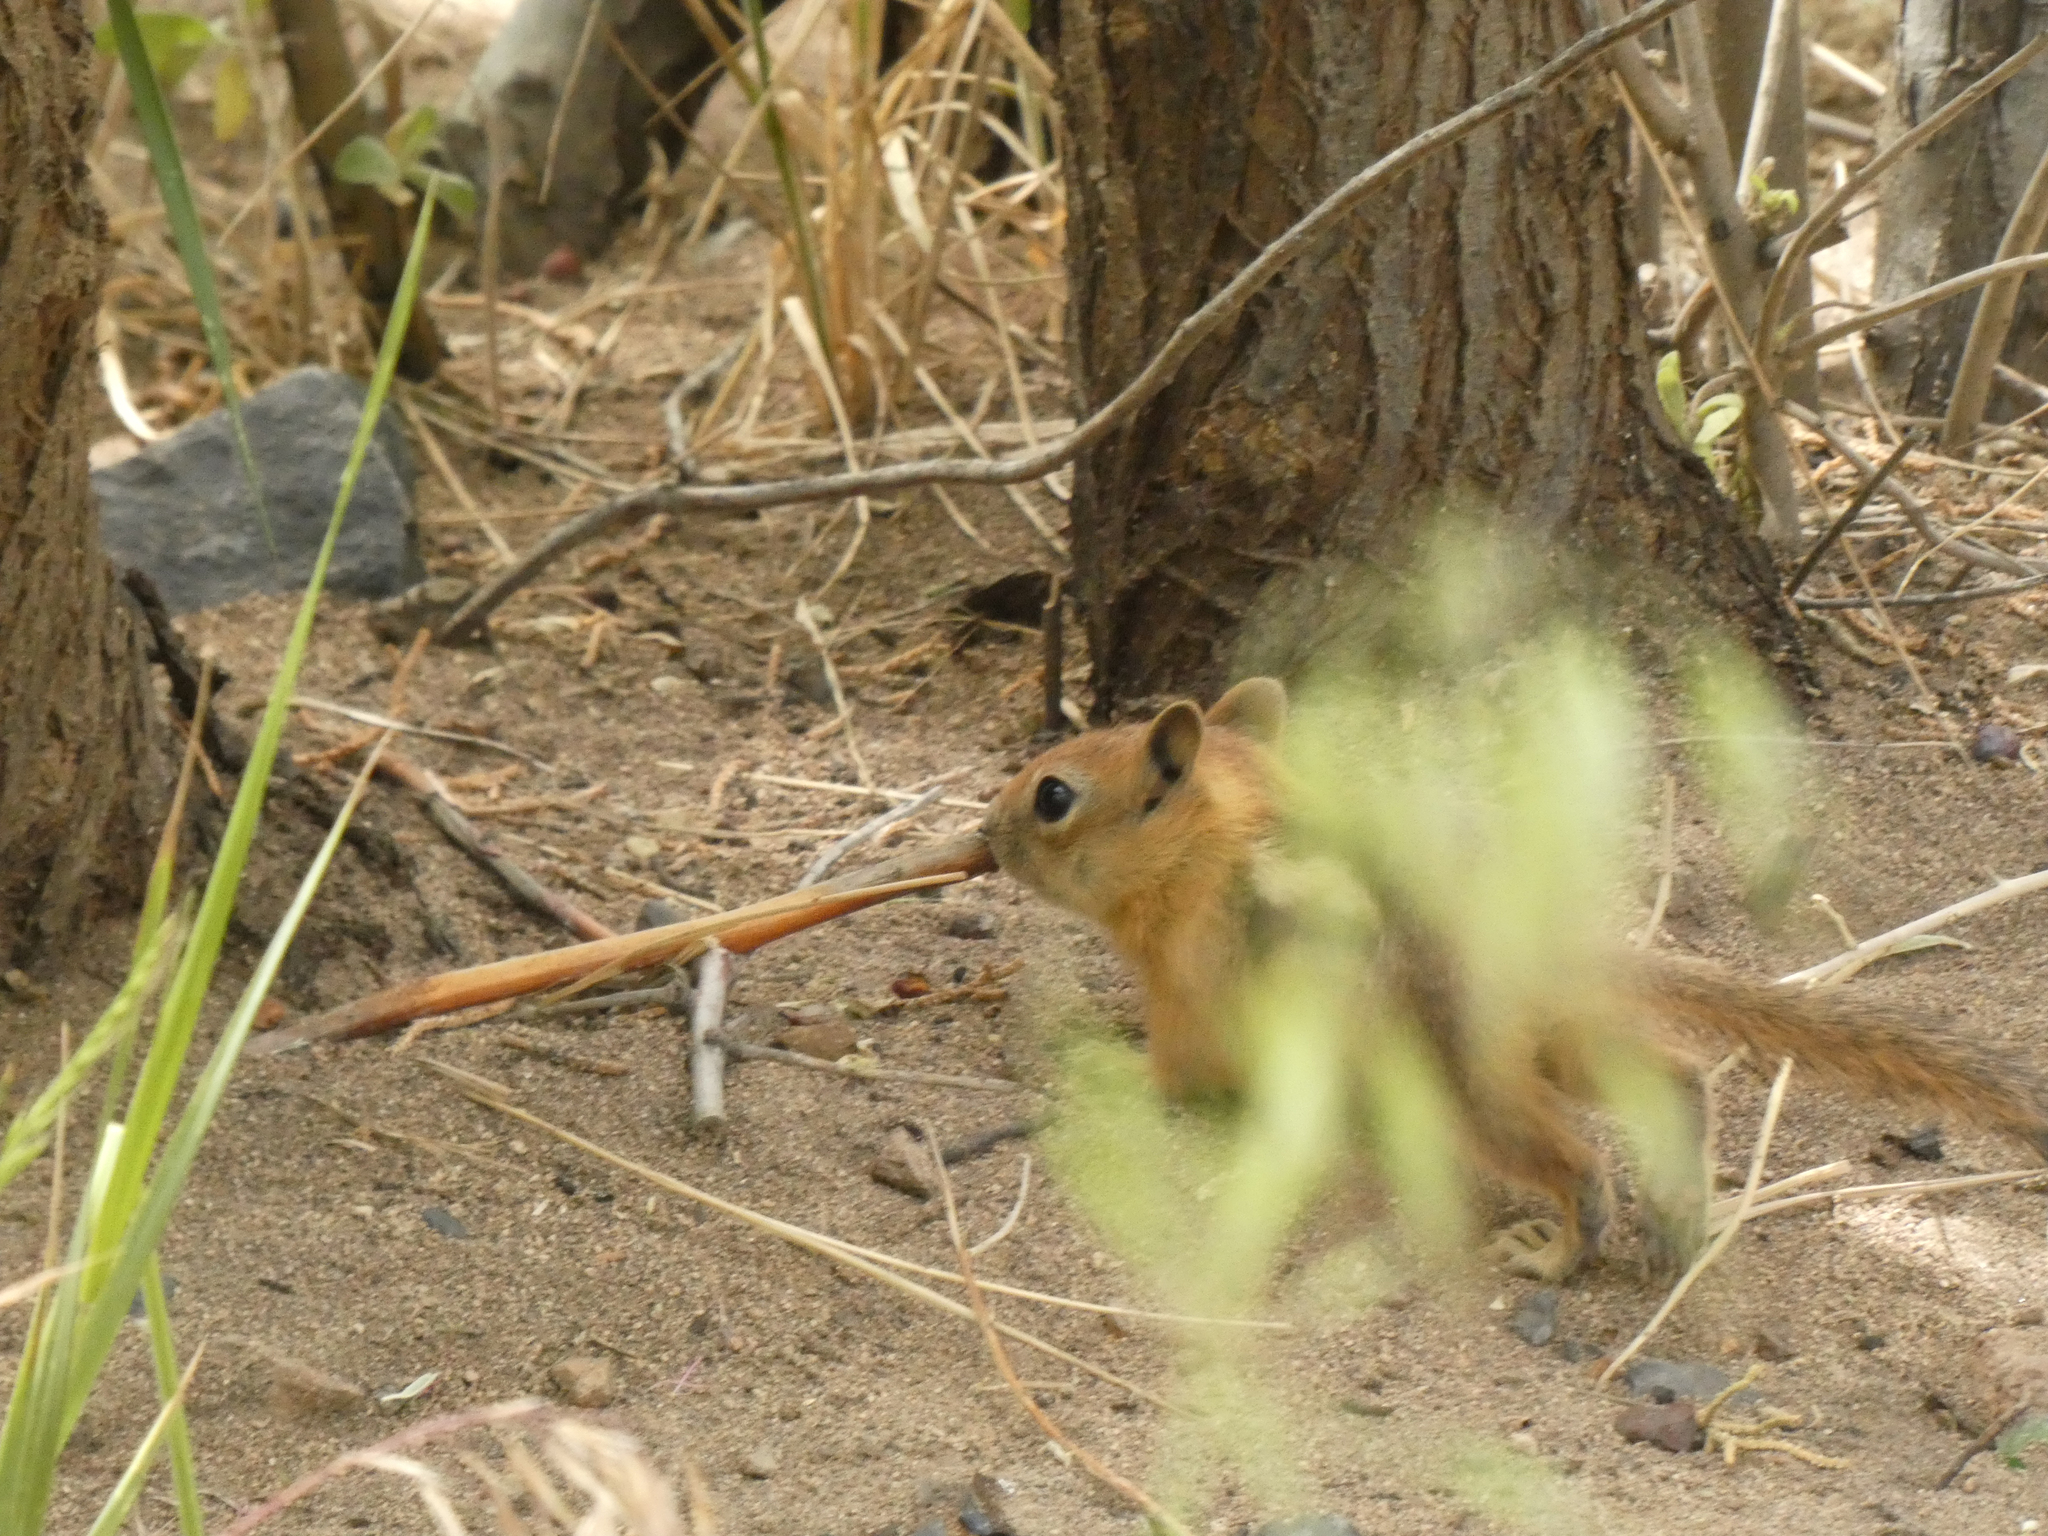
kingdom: Animalia
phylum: Chordata
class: Mammalia
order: Rodentia
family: Sciuridae
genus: Callospermophilus
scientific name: Callospermophilus lateralis
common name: Golden-mantled ground squirrel
